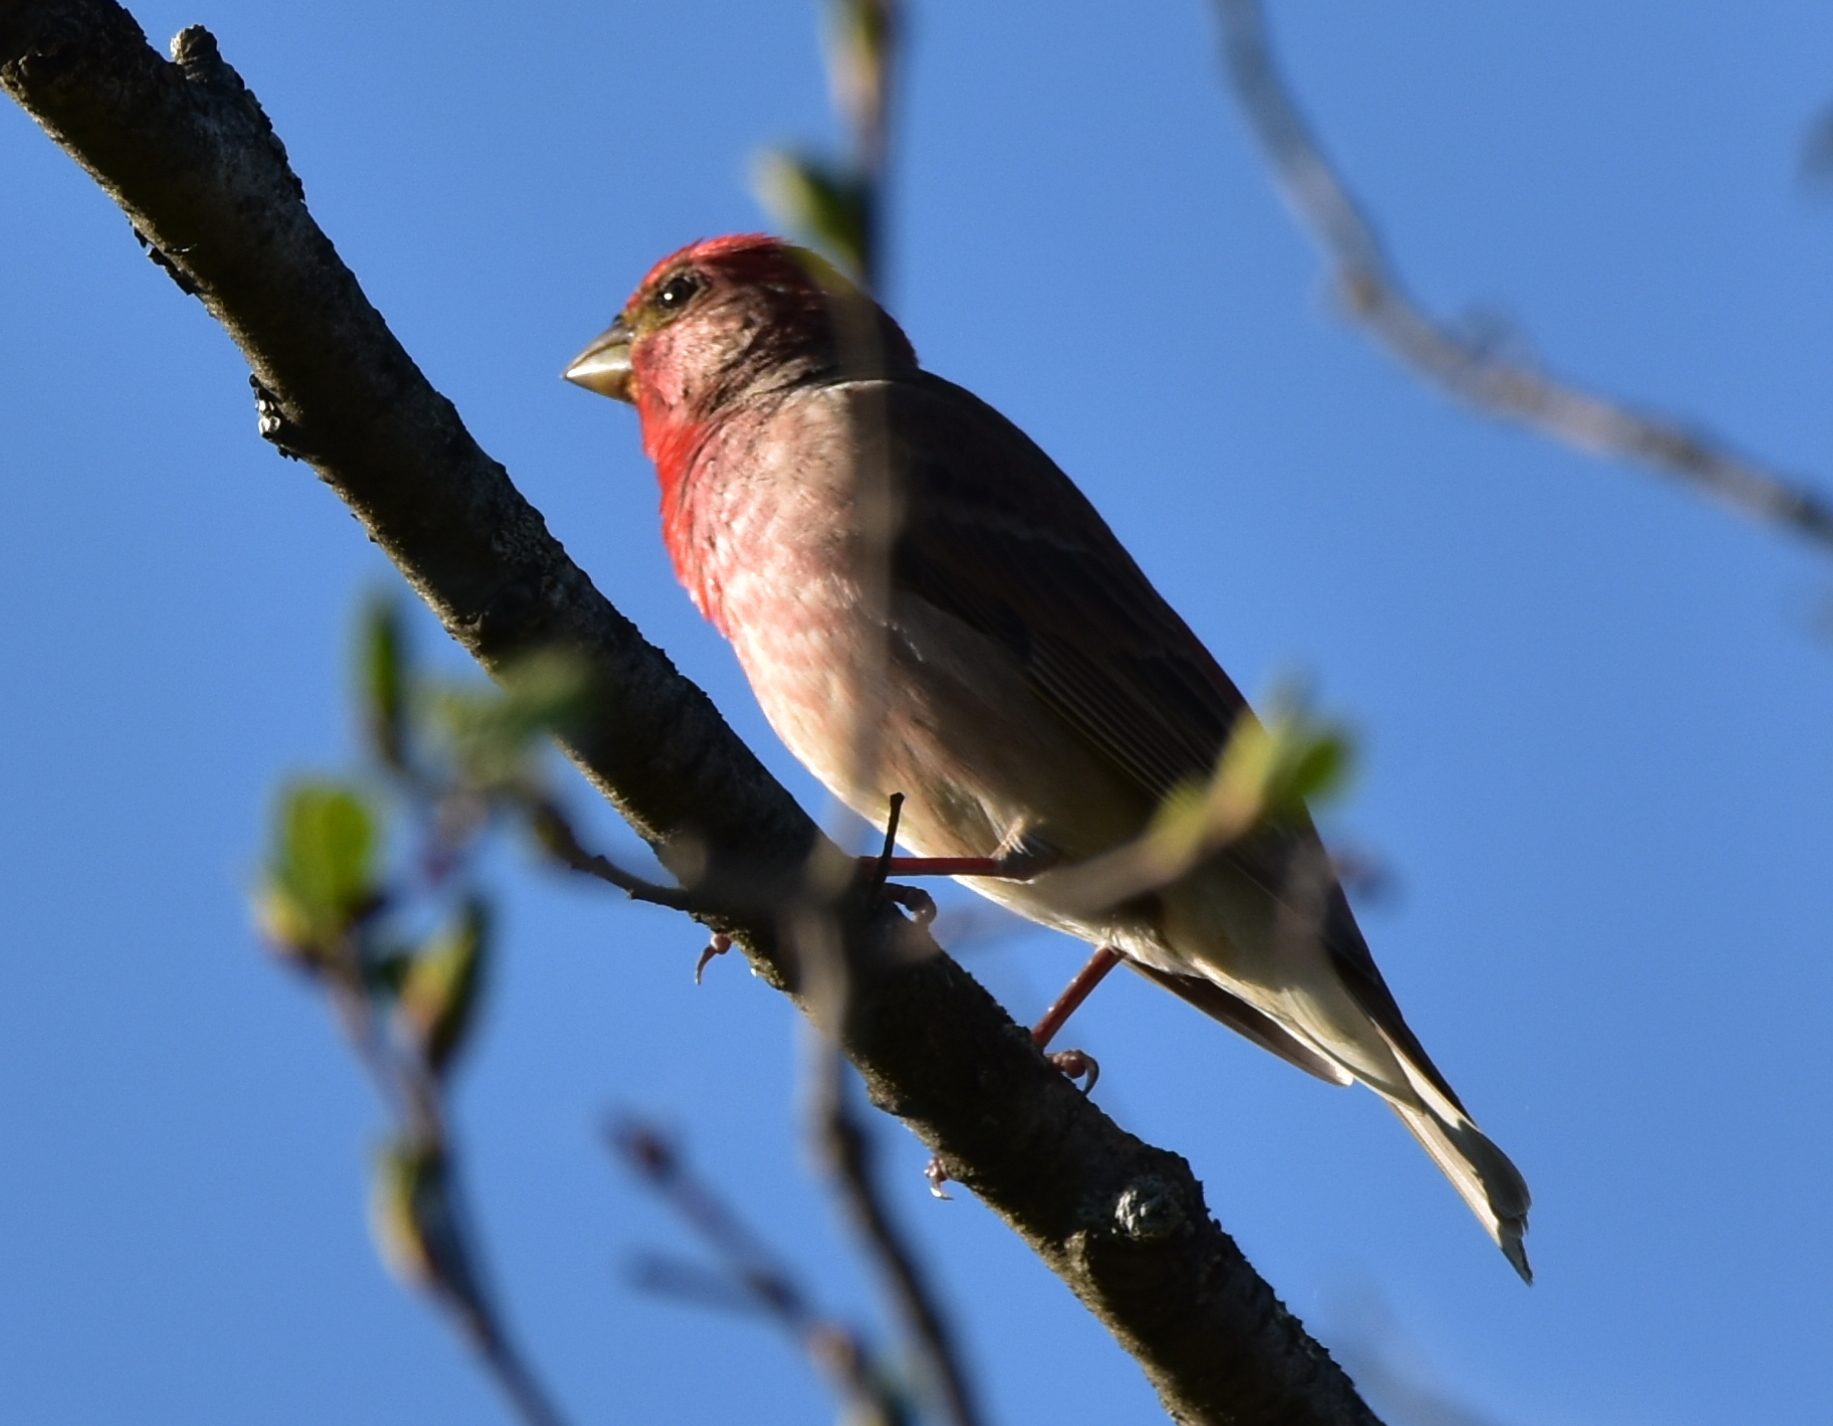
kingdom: Animalia
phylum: Chordata
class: Aves
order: Passeriformes
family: Fringillidae
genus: Carpodacus
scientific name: Carpodacus erythrinus
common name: Common rosefinch
